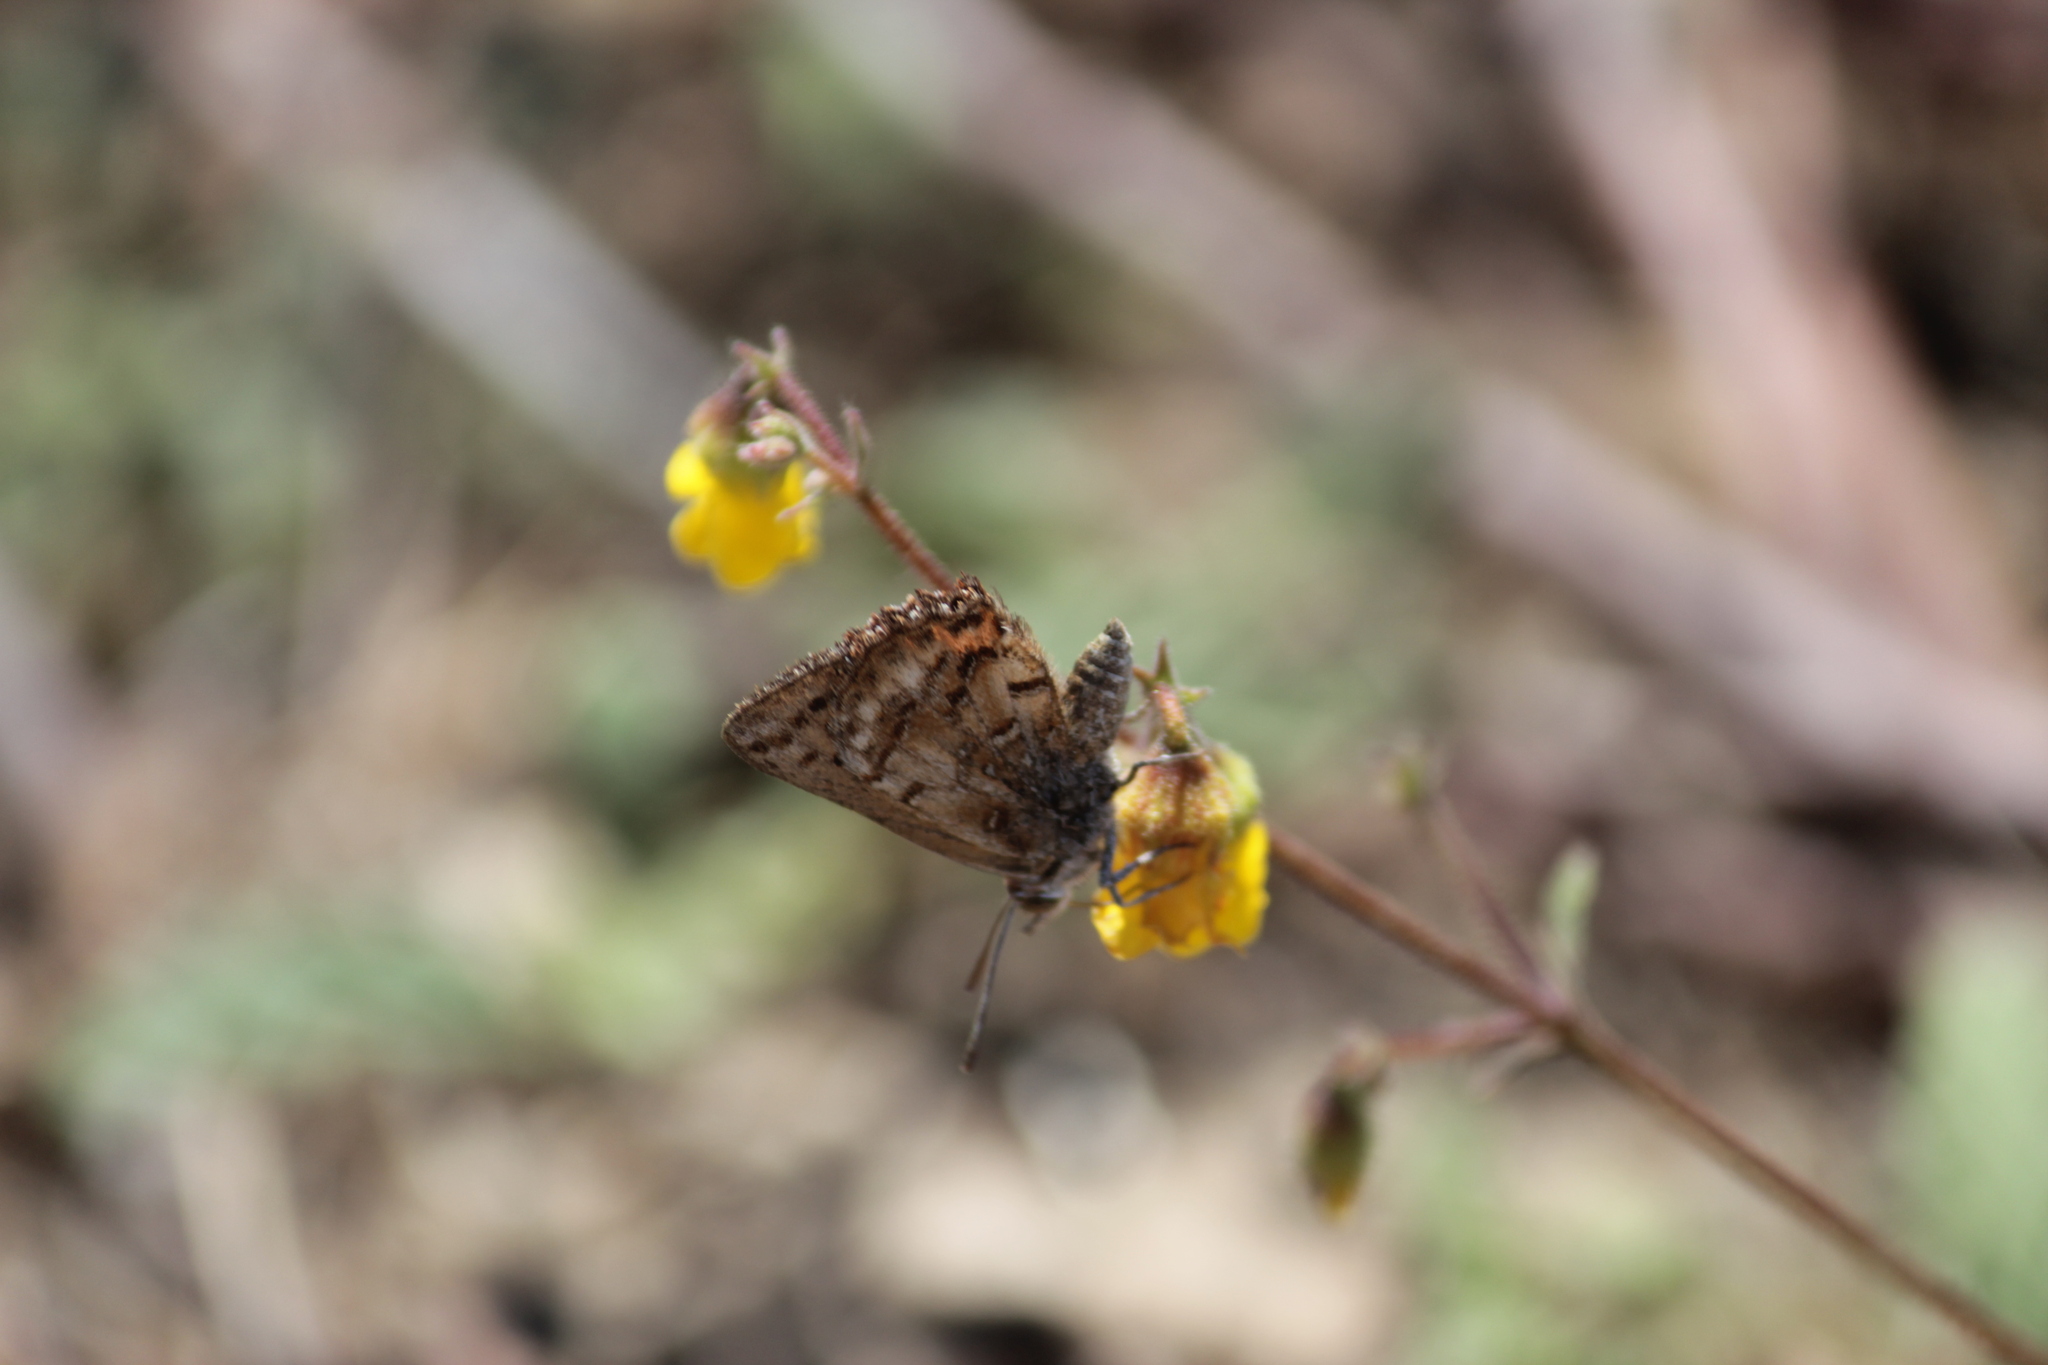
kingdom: Animalia
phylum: Arthropoda
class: Insecta
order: Lepidoptera
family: Lycaenidae
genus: Aloeides
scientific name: Aloeides pierus
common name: Dull copper
